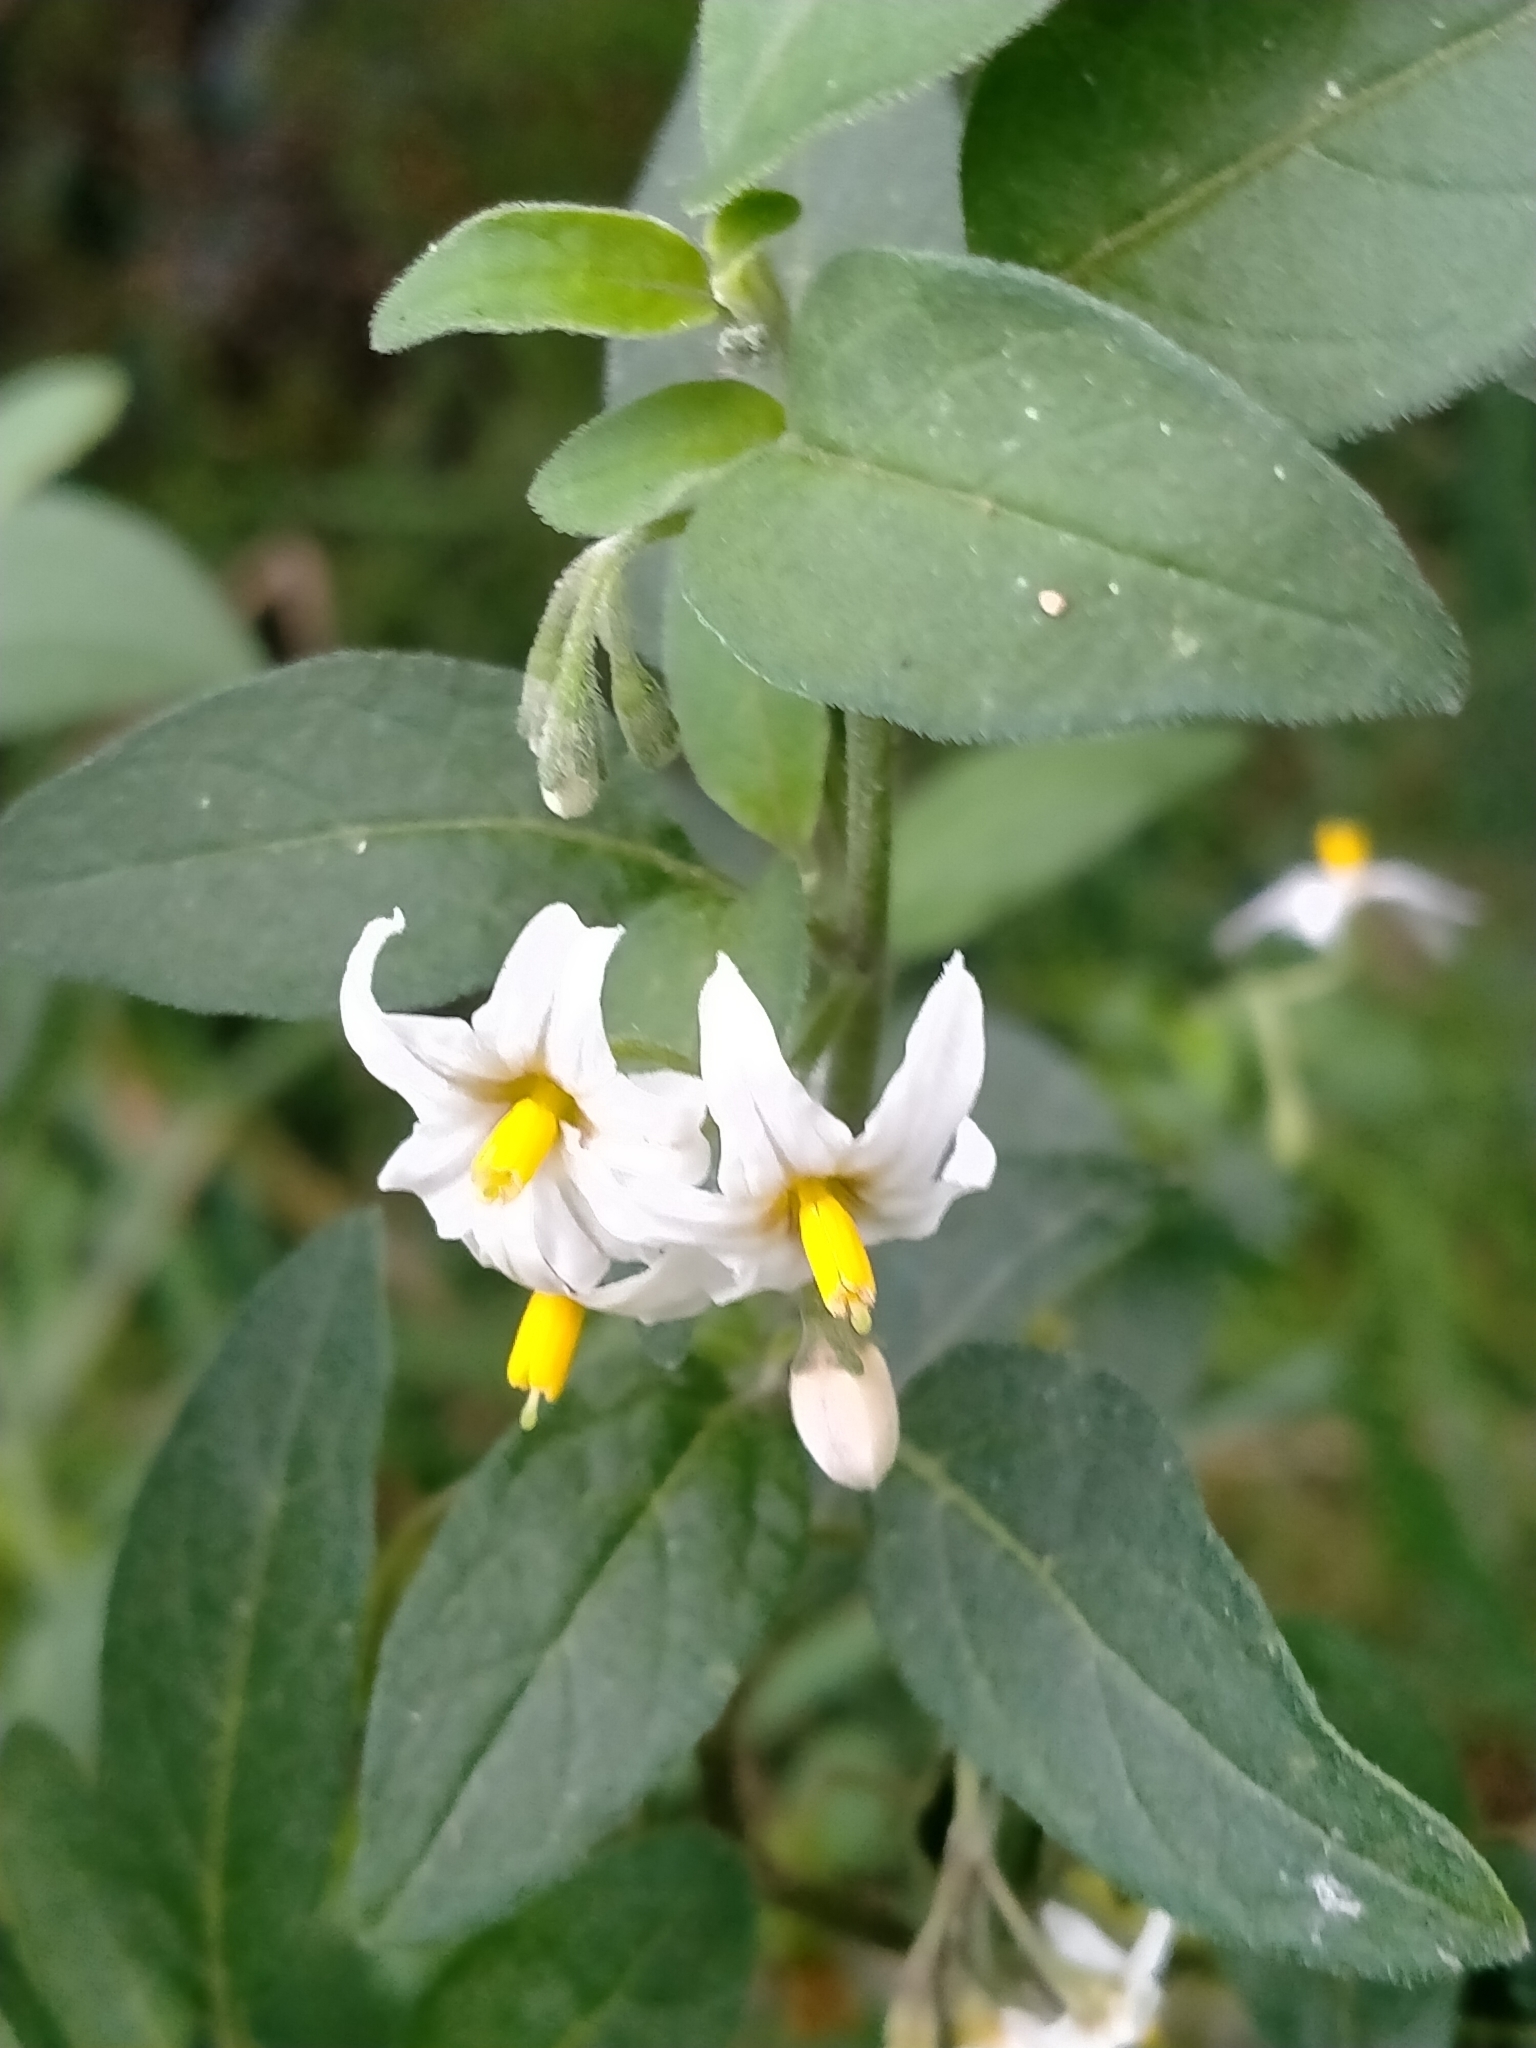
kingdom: Plantae
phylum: Tracheophyta
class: Magnoliopsida
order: Solanales
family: Solanaceae
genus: Solanum
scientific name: Solanum chenopodioides
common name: Tall nightshade
